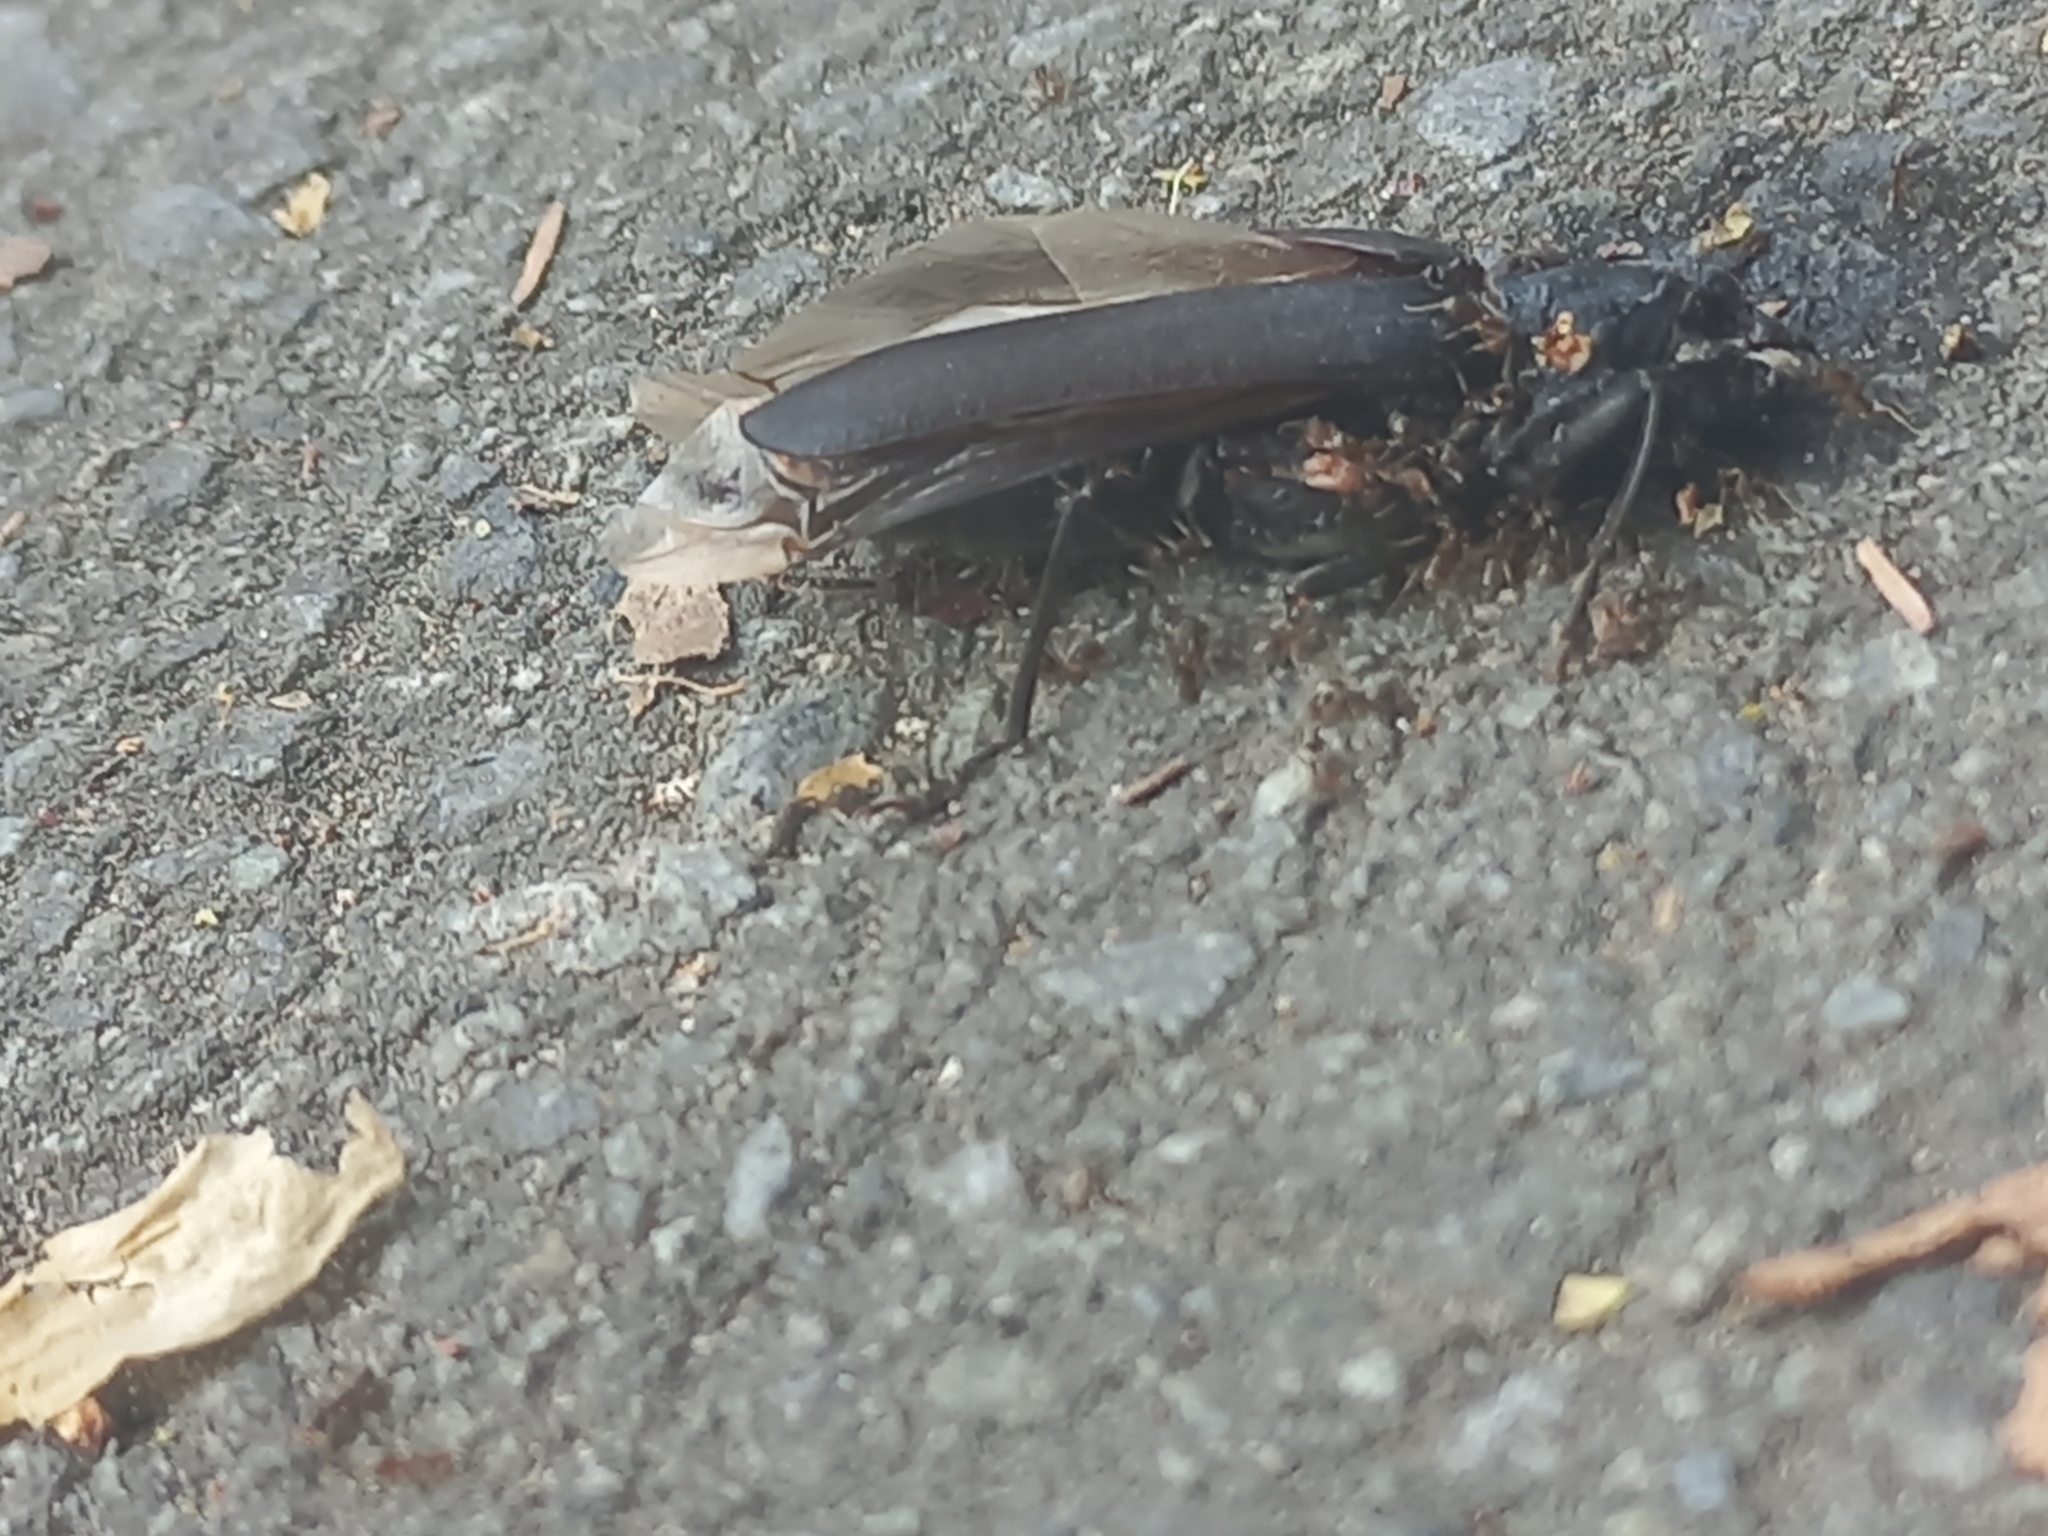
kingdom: Animalia
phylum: Arthropoda
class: Insecta
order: Coleoptera
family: Cerambycidae
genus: Arhopalus
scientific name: Arhopalus ferus
